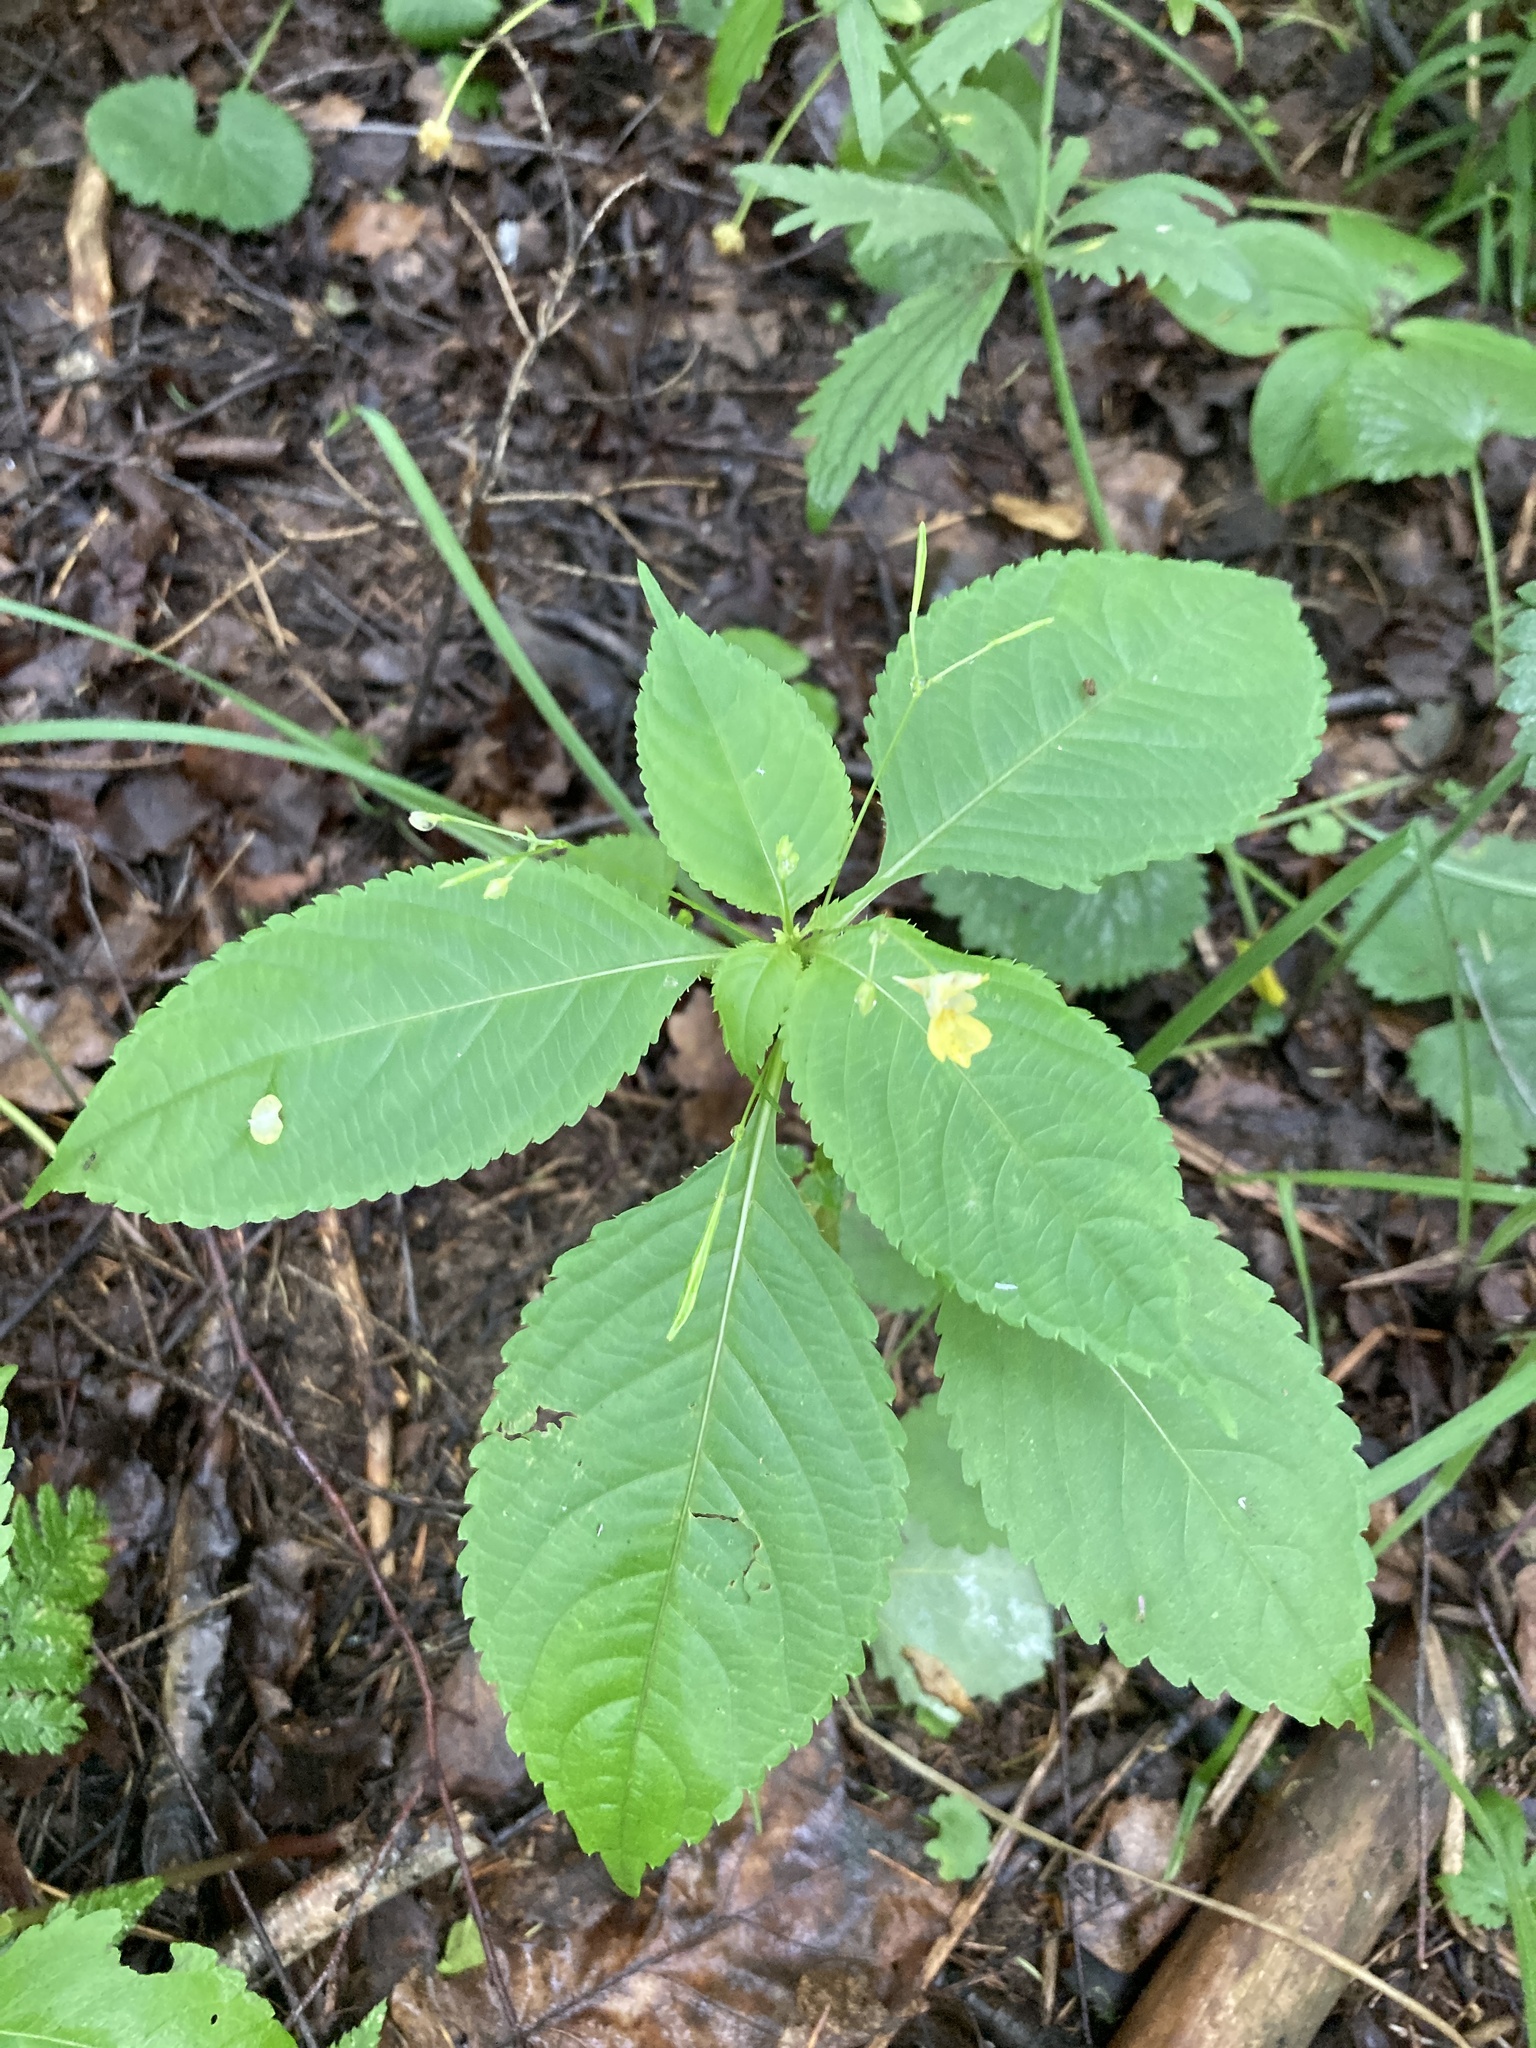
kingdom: Plantae
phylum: Tracheophyta
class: Magnoliopsida
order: Ericales
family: Balsaminaceae
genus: Impatiens
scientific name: Impatiens parviflora
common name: Small balsam
